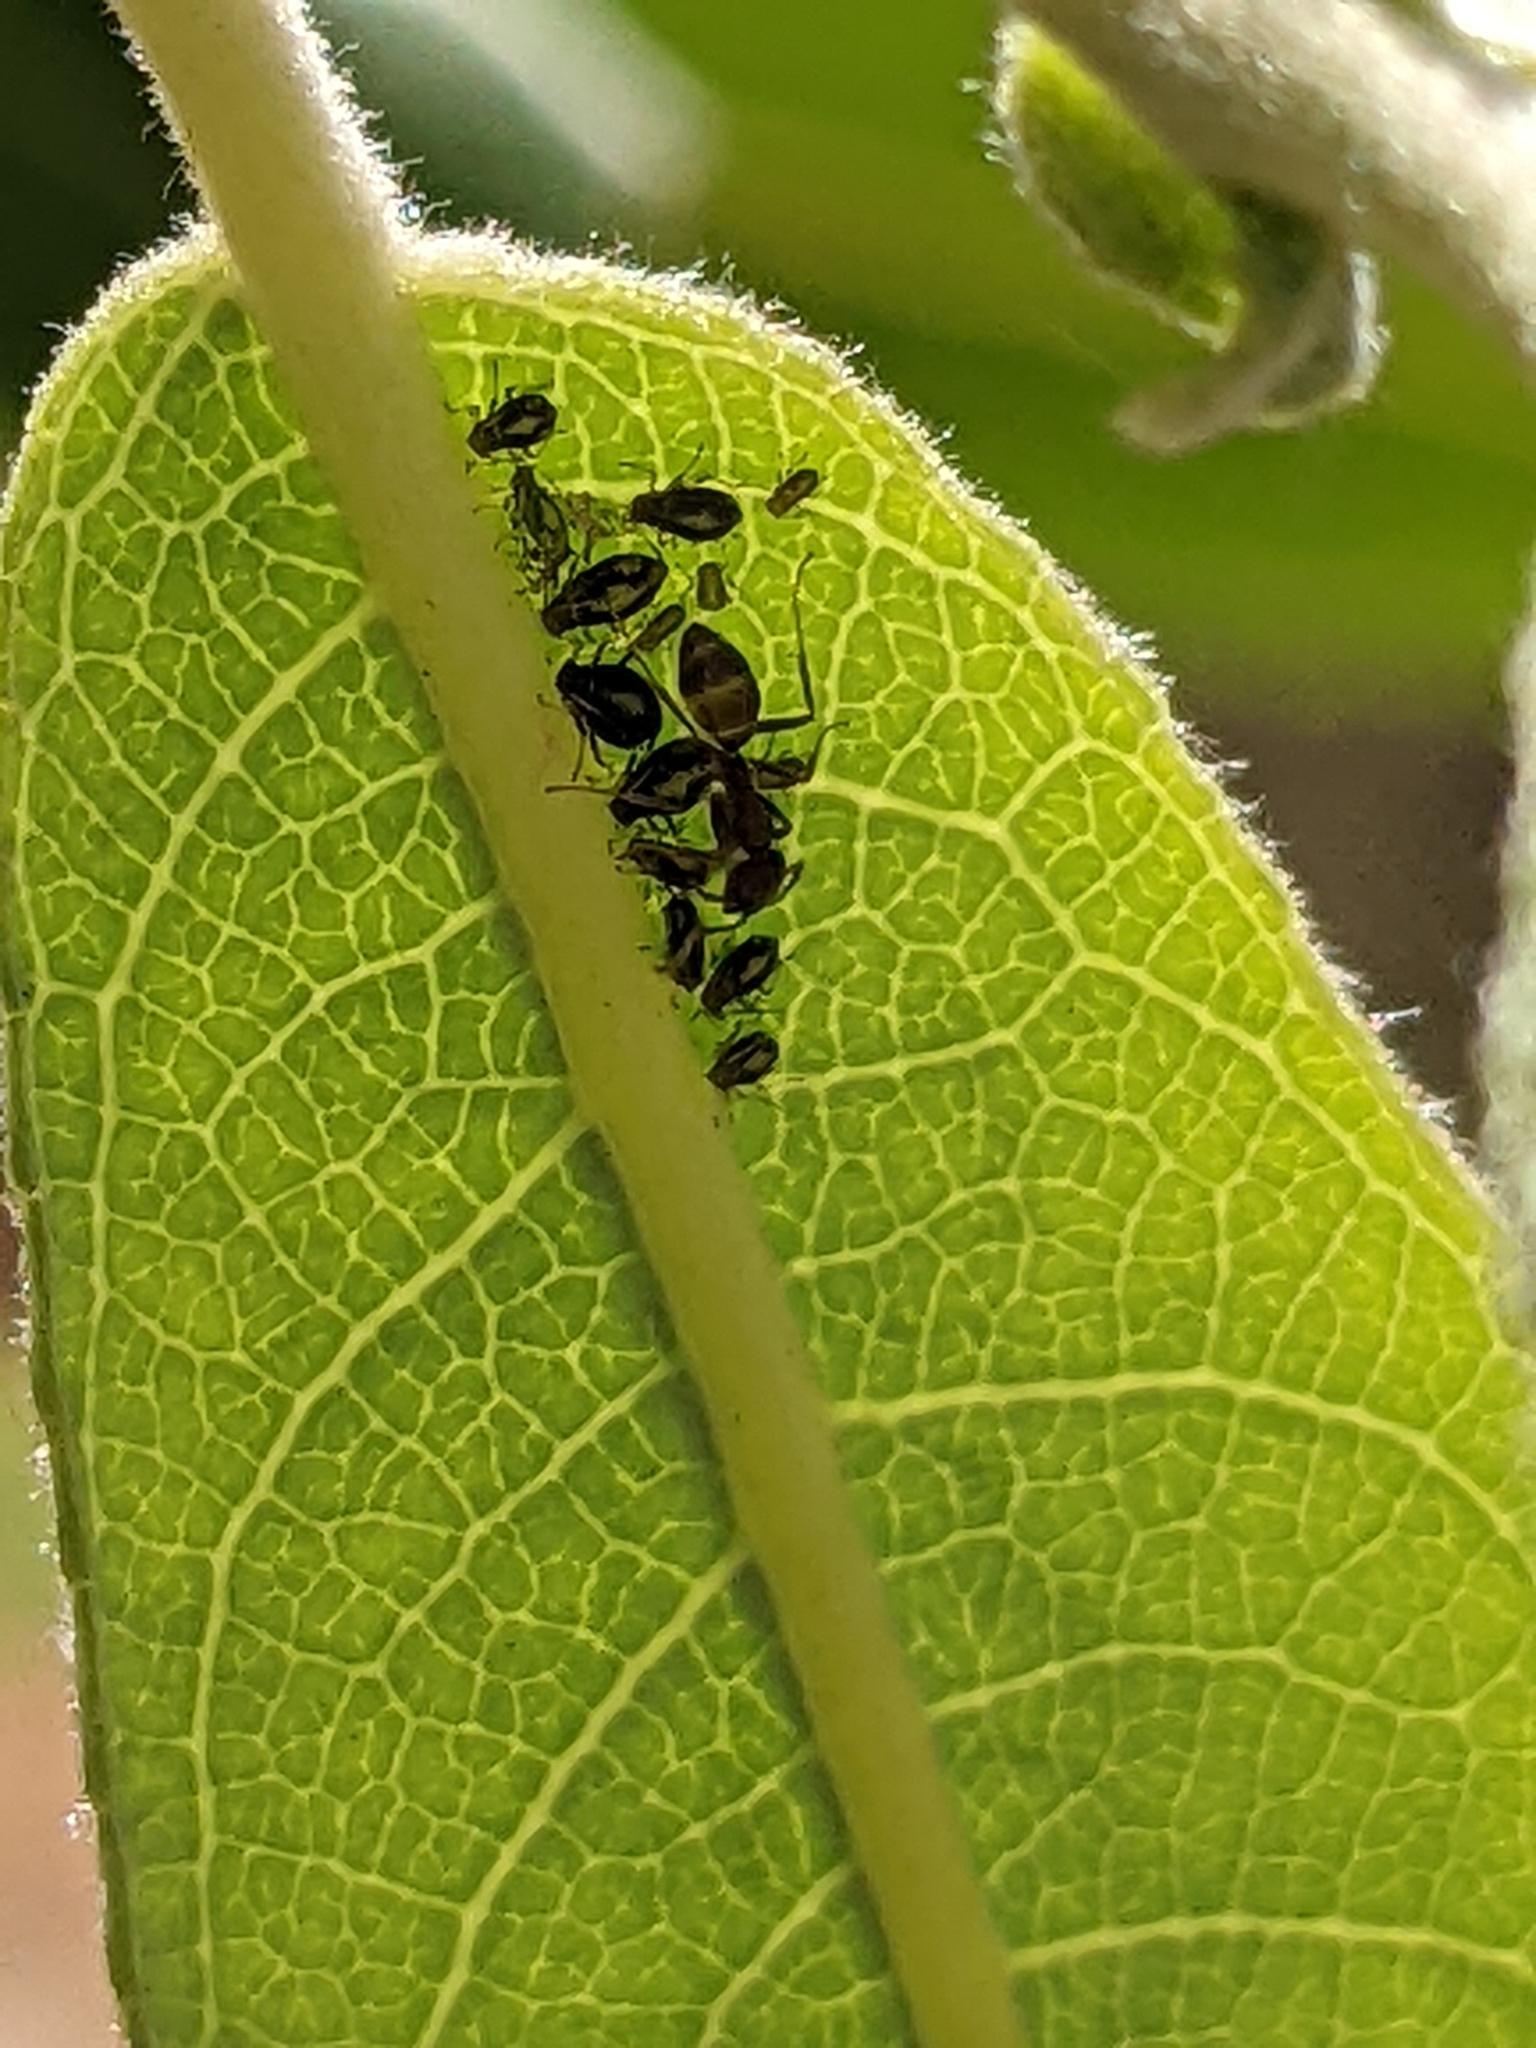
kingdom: Animalia
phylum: Arthropoda
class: Insecta
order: Hemiptera
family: Aphididae
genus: Aphis
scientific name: Aphis craccivora
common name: Cowpea aphid
